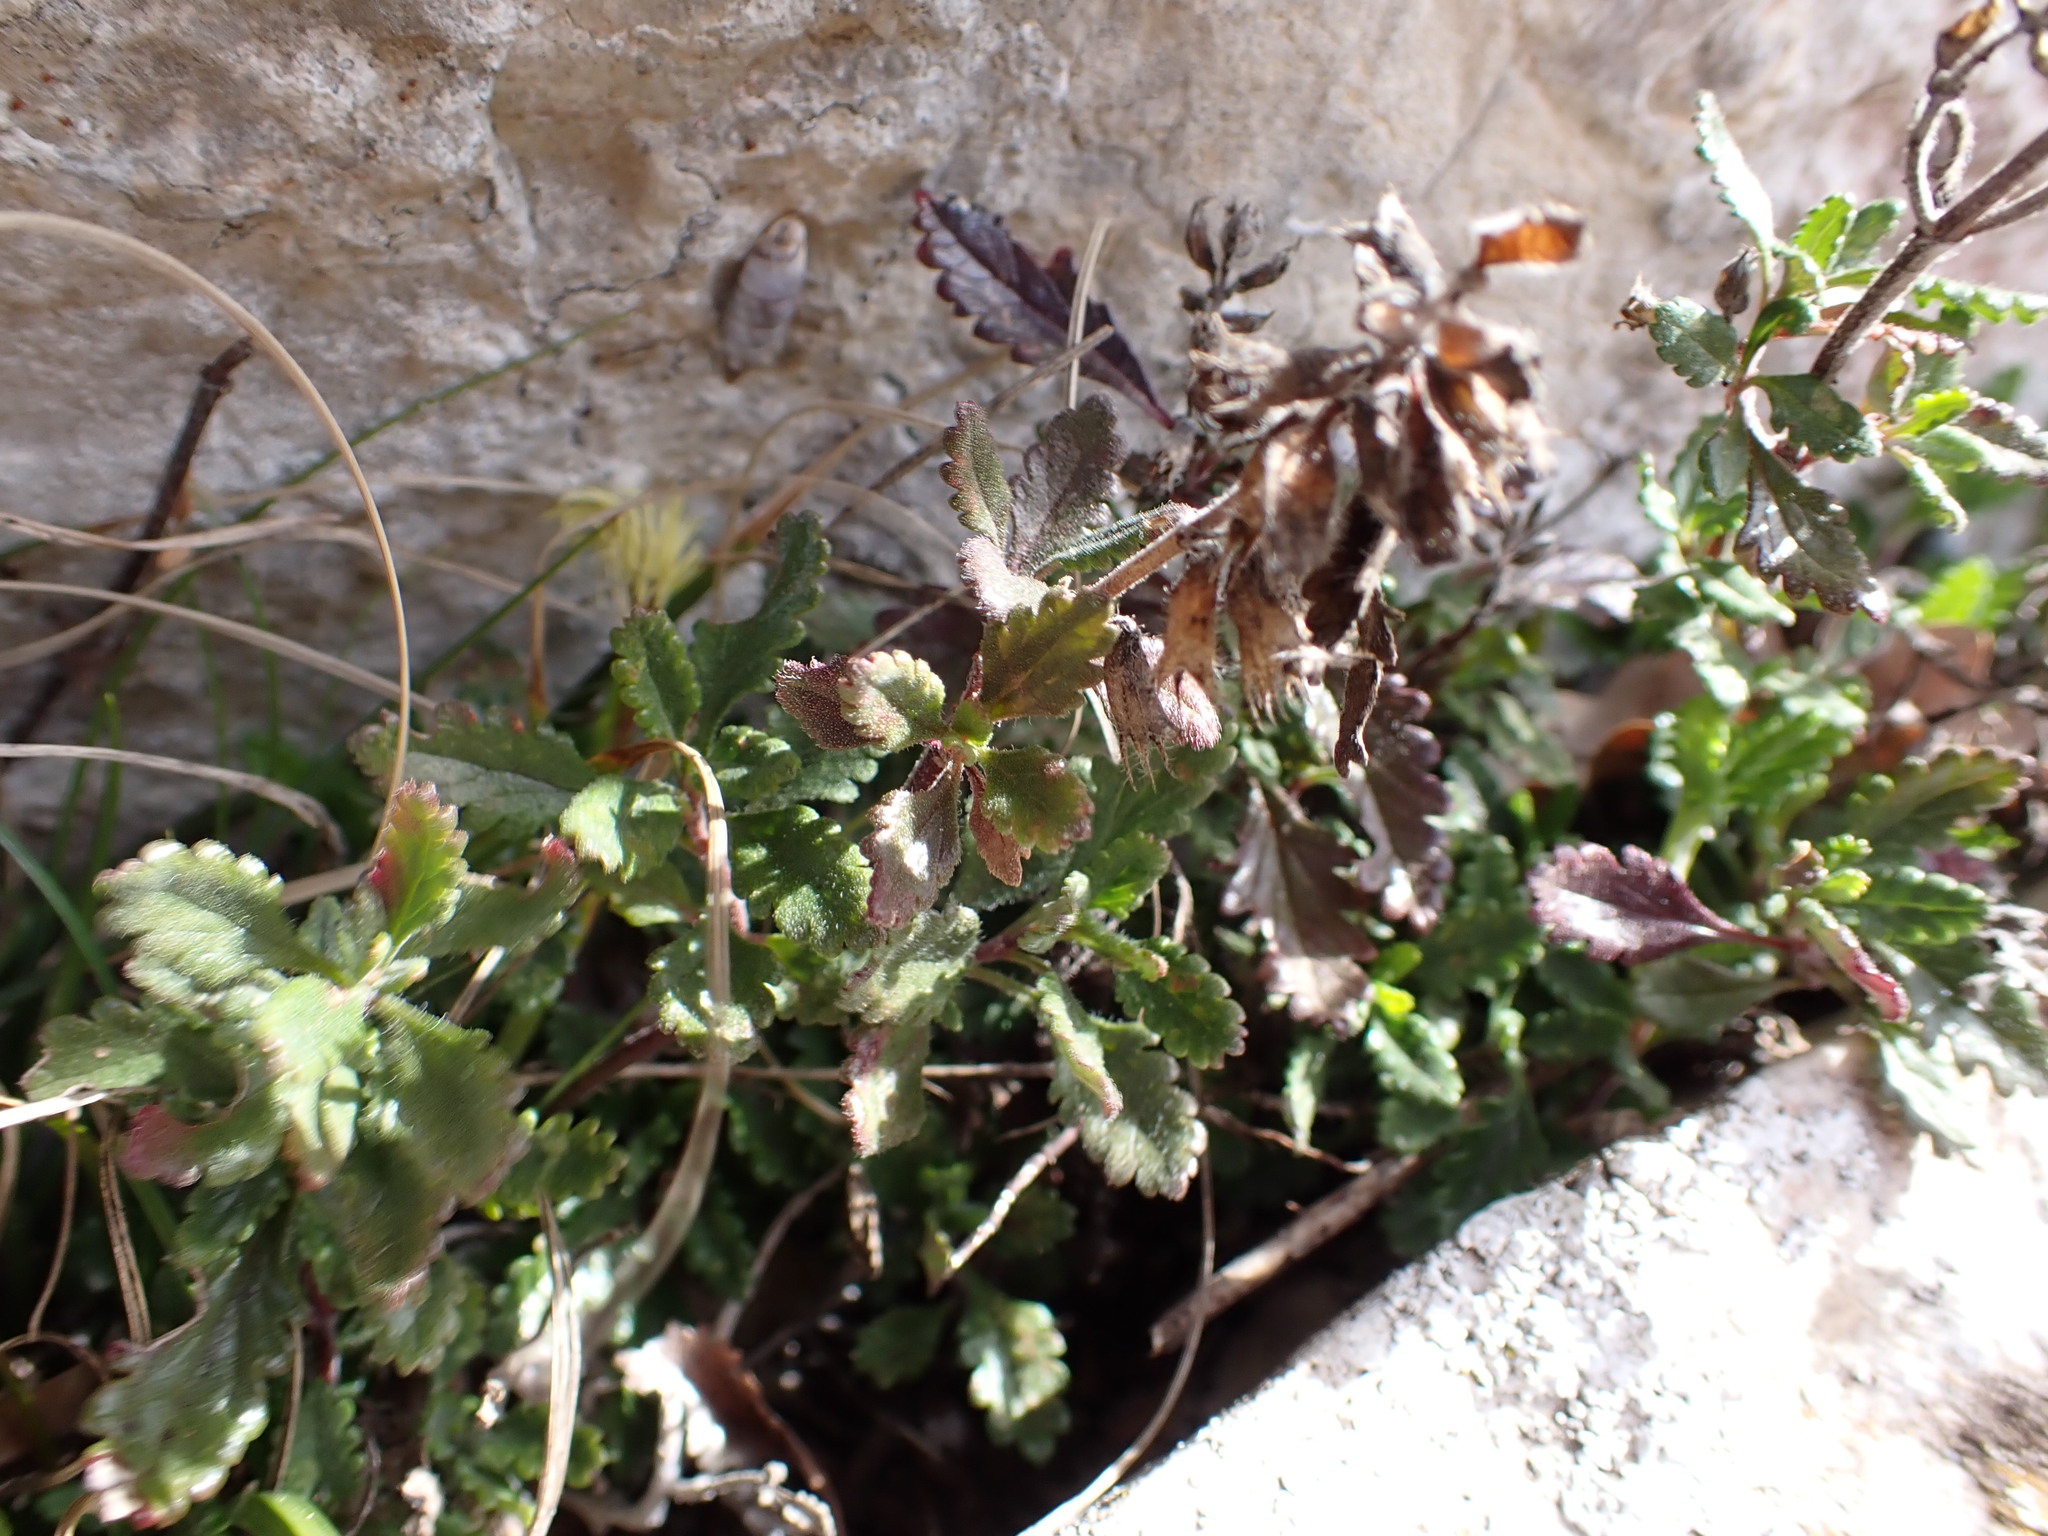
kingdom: Plantae
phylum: Tracheophyta
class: Magnoliopsida
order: Lamiales
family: Lamiaceae
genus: Teucrium
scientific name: Teucrium chamaedrys
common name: Wall germander
